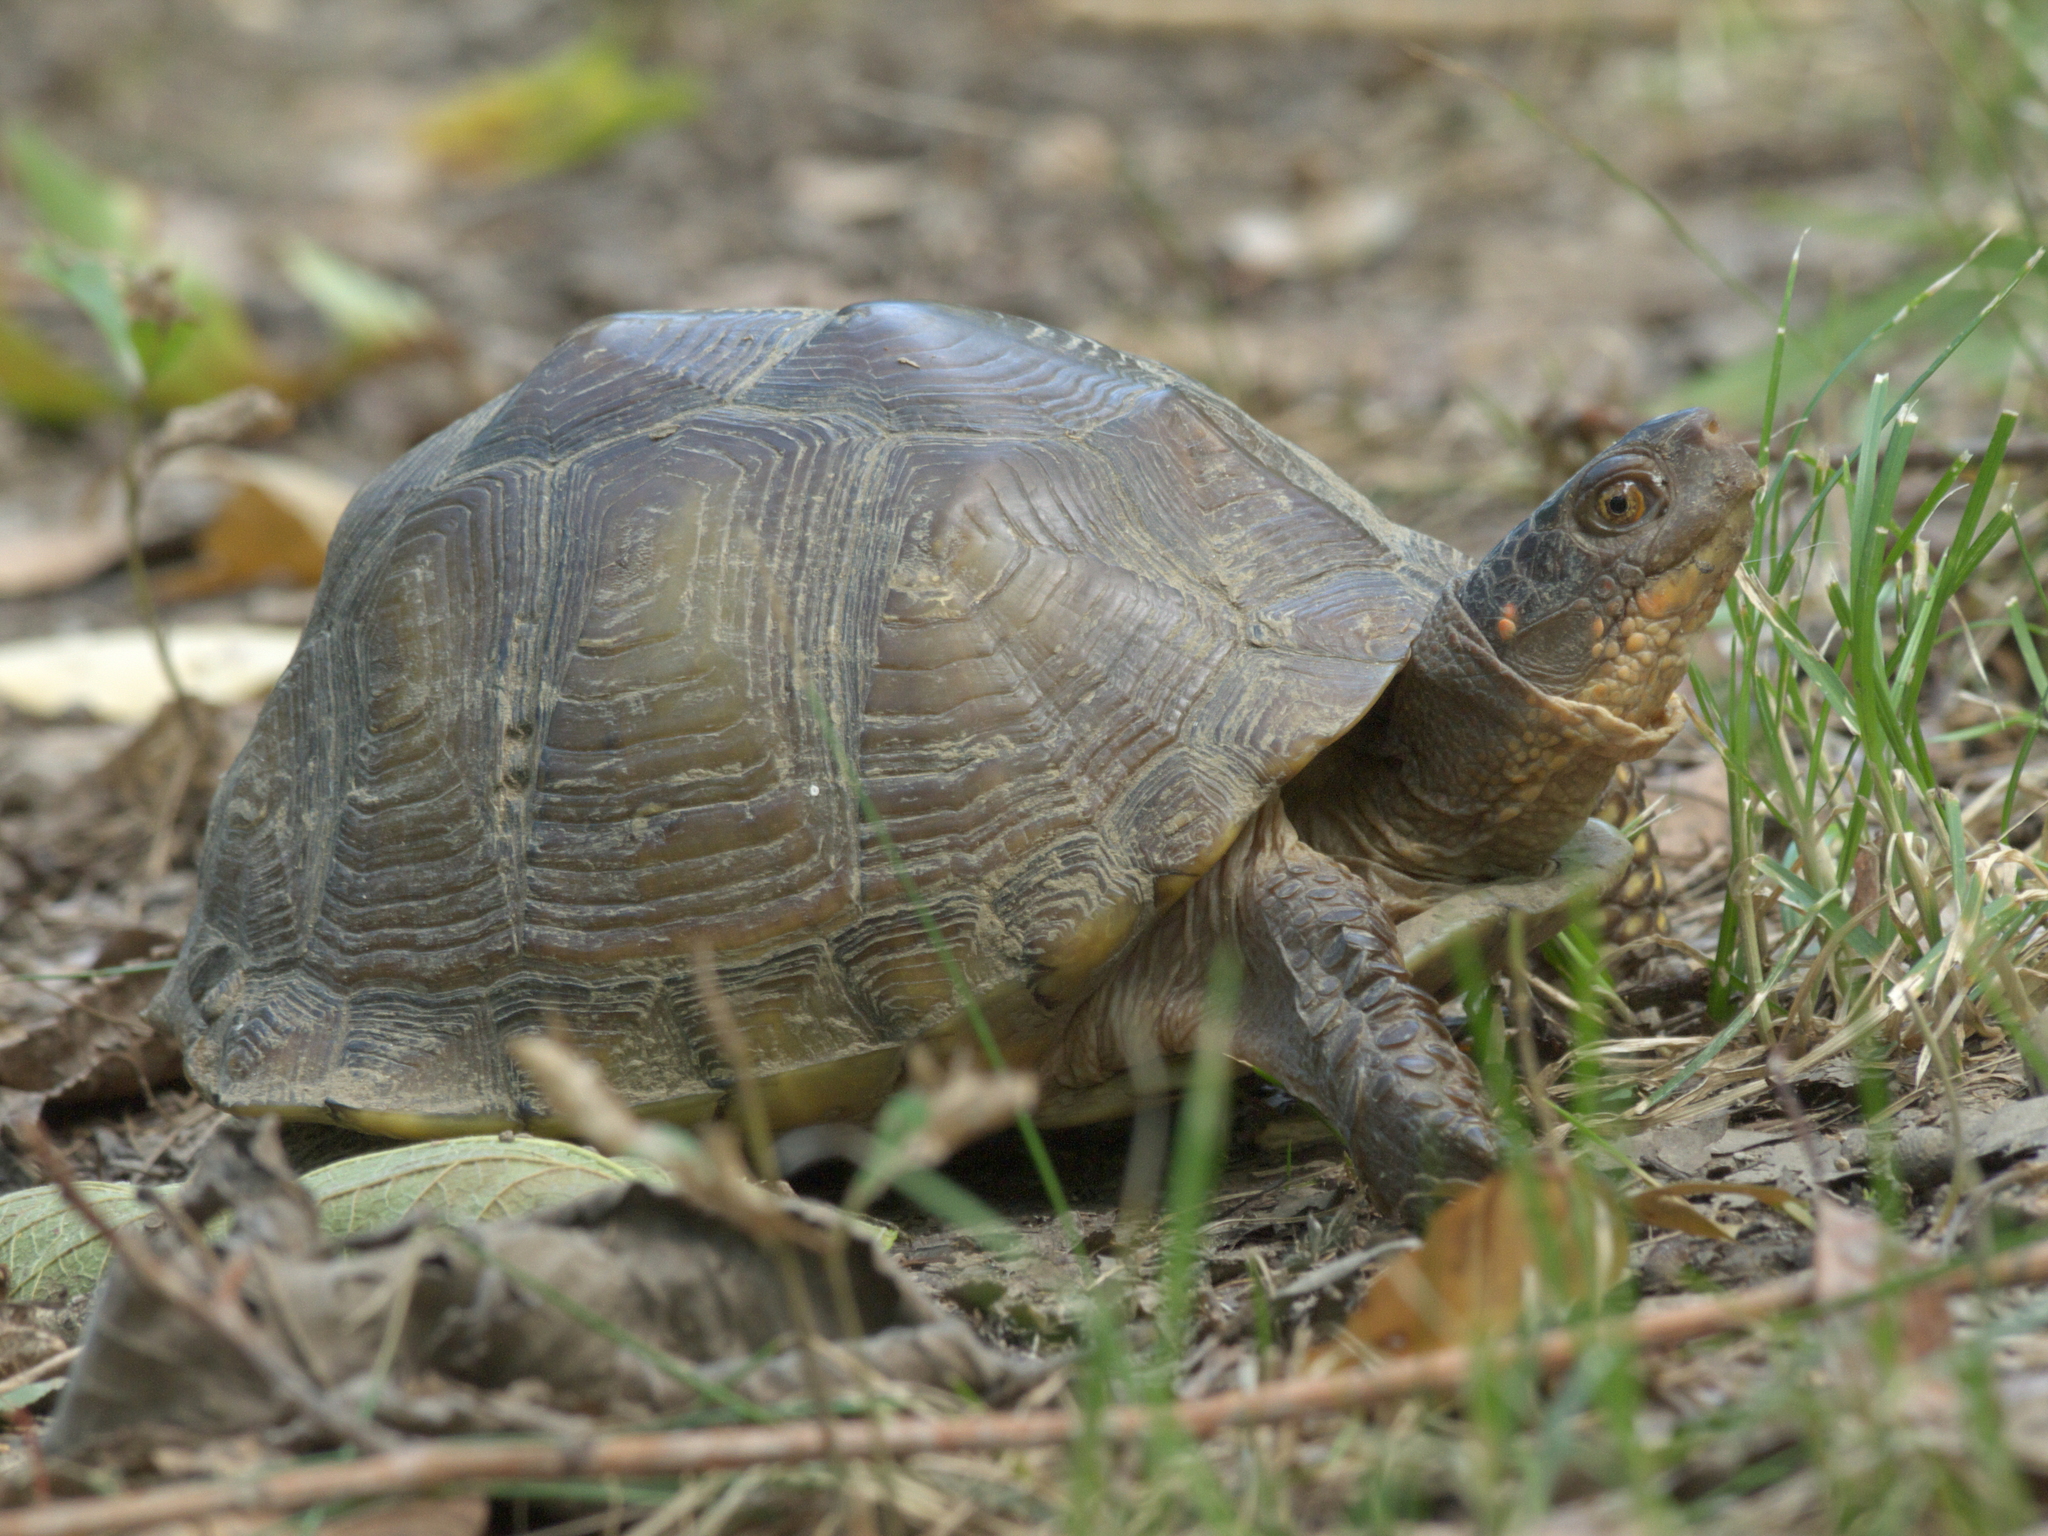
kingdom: Animalia
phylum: Chordata
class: Testudines
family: Emydidae
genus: Terrapene
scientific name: Terrapene carolina
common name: Common box turtle
